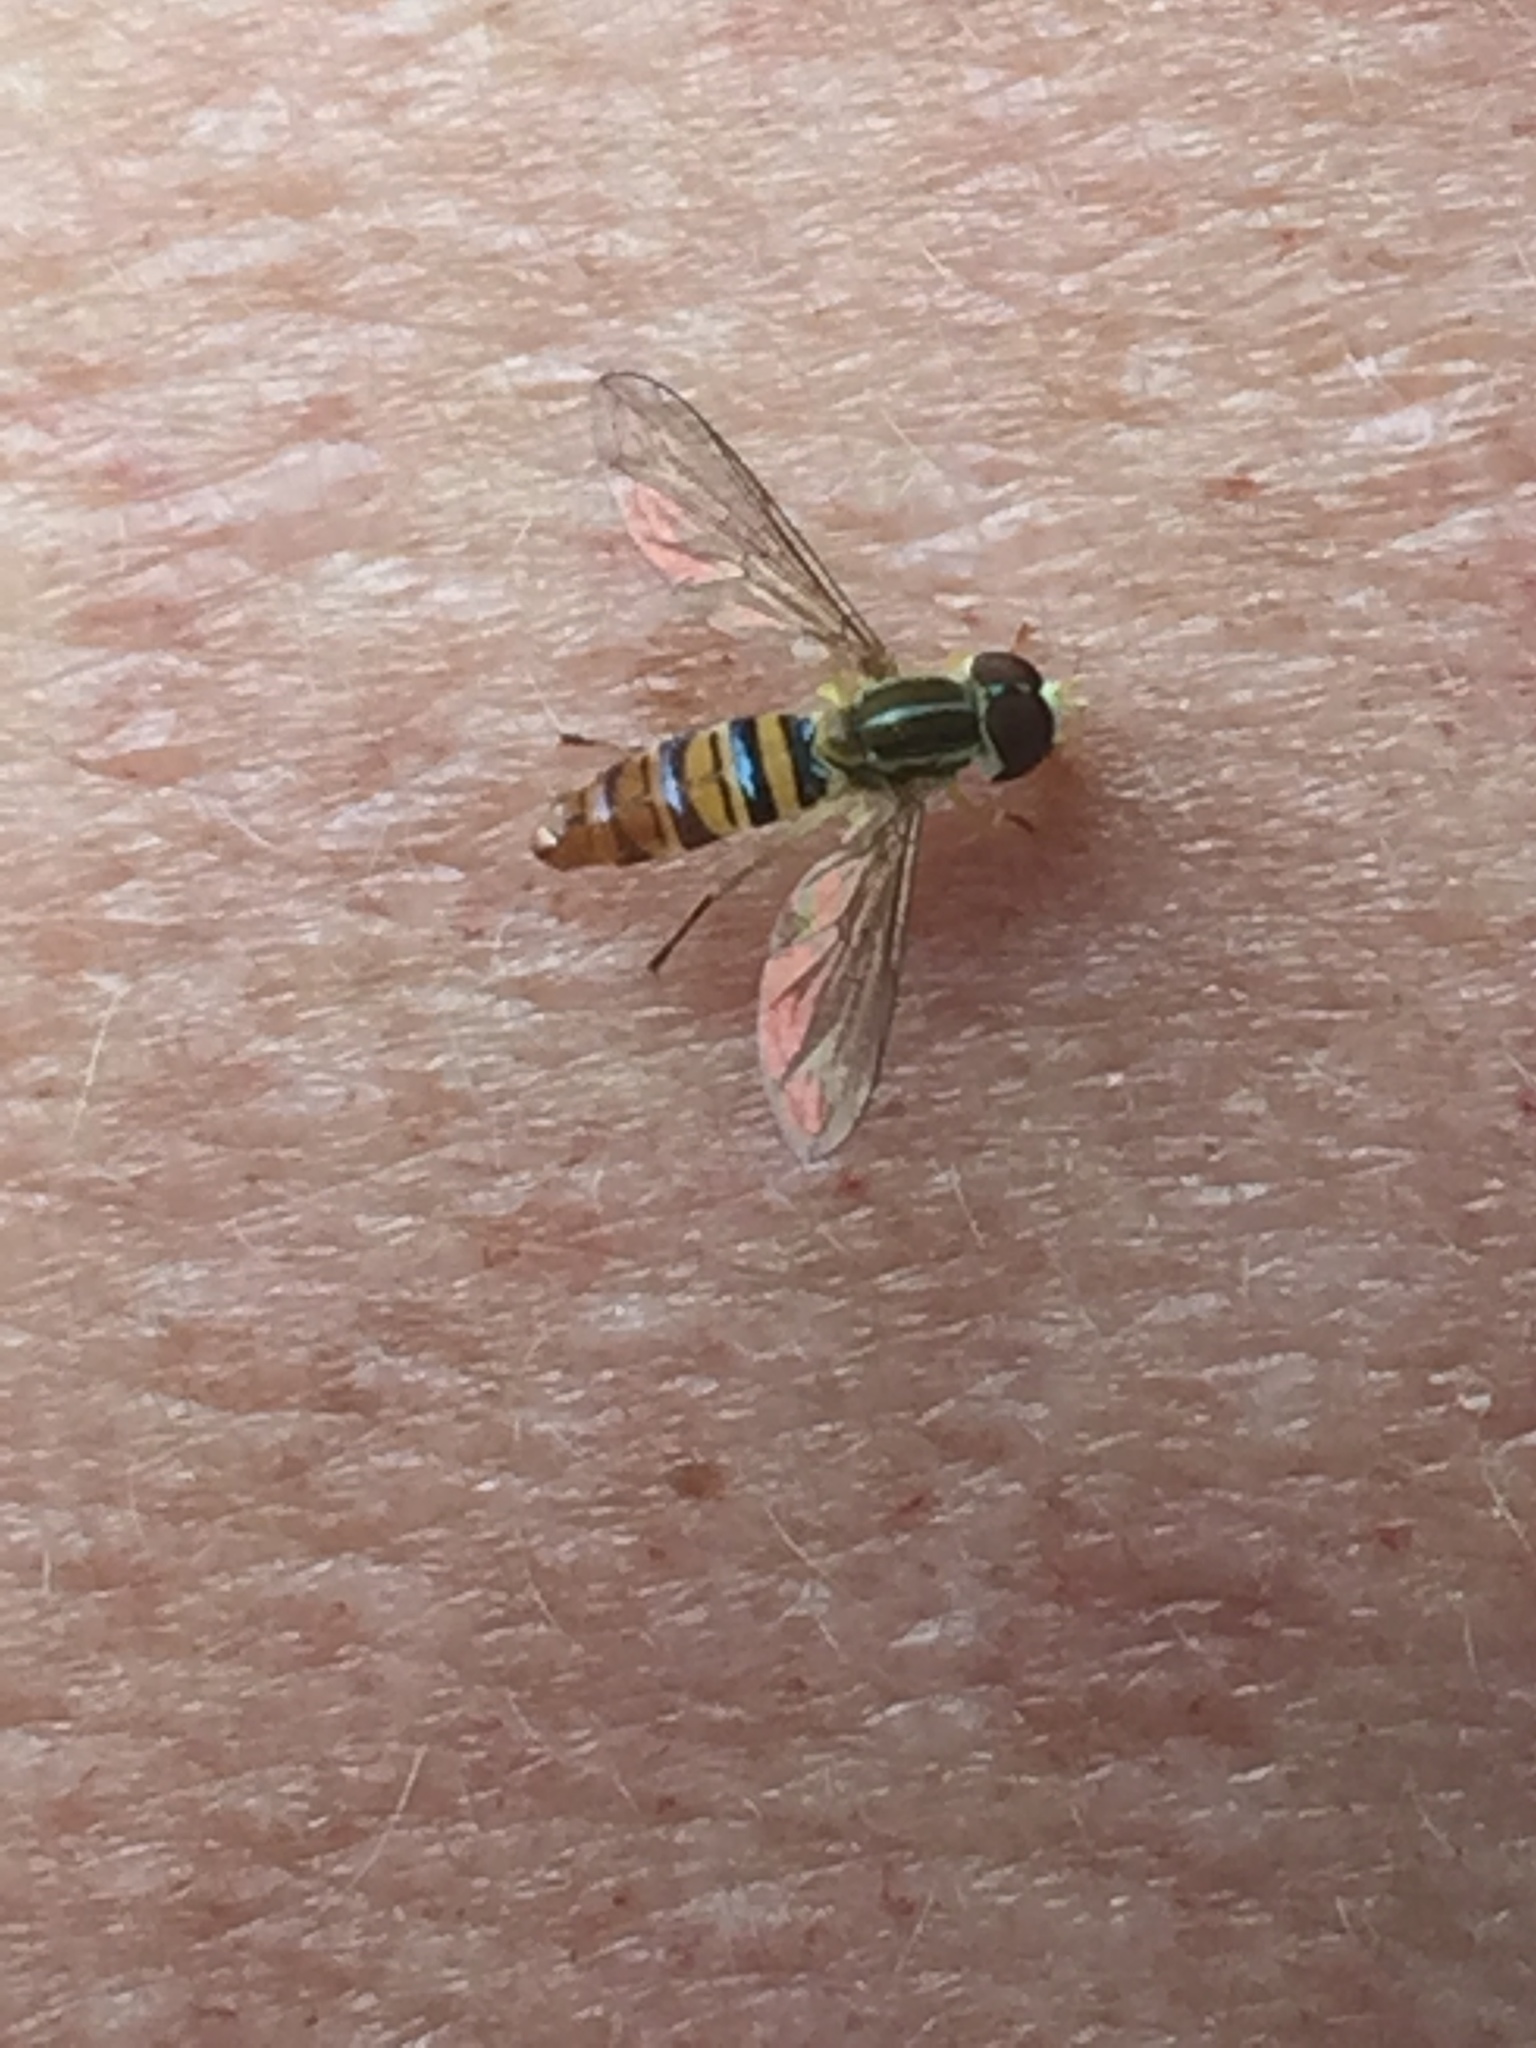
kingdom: Animalia
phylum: Arthropoda
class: Insecta
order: Diptera
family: Syrphidae
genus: Toxomerus
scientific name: Toxomerus politus
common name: Maize calligrapher
